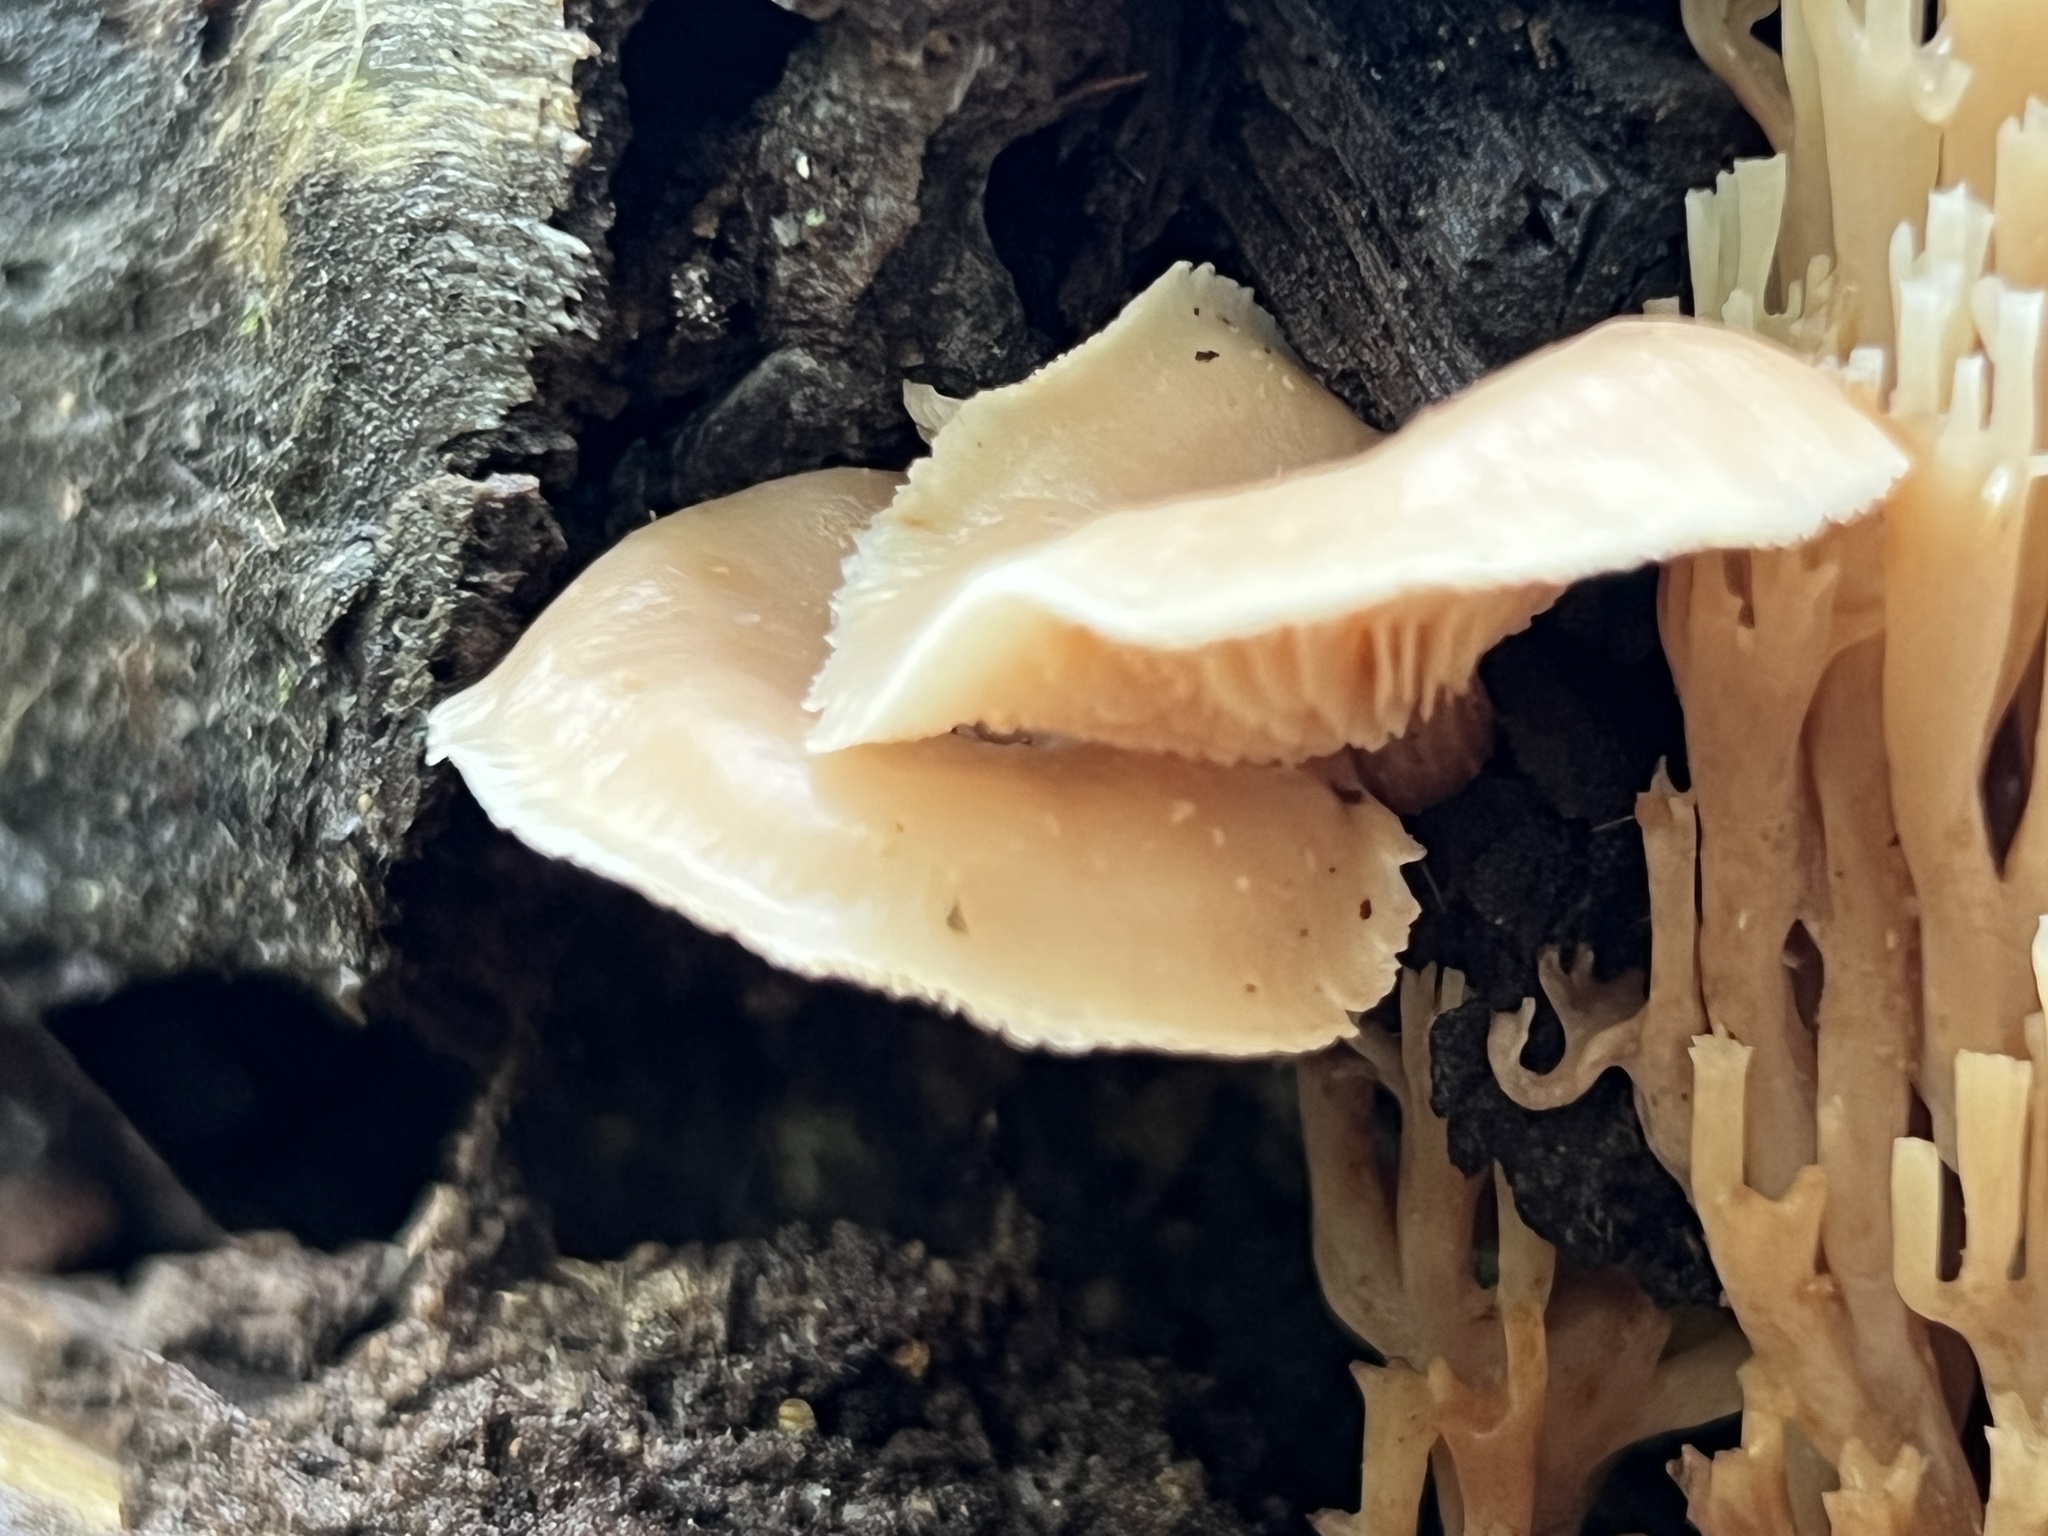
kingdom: Fungi
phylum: Basidiomycota
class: Agaricomycetes
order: Russulales
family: Auriscalpiaceae
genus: Lentinellus
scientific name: Lentinellus micheneri
